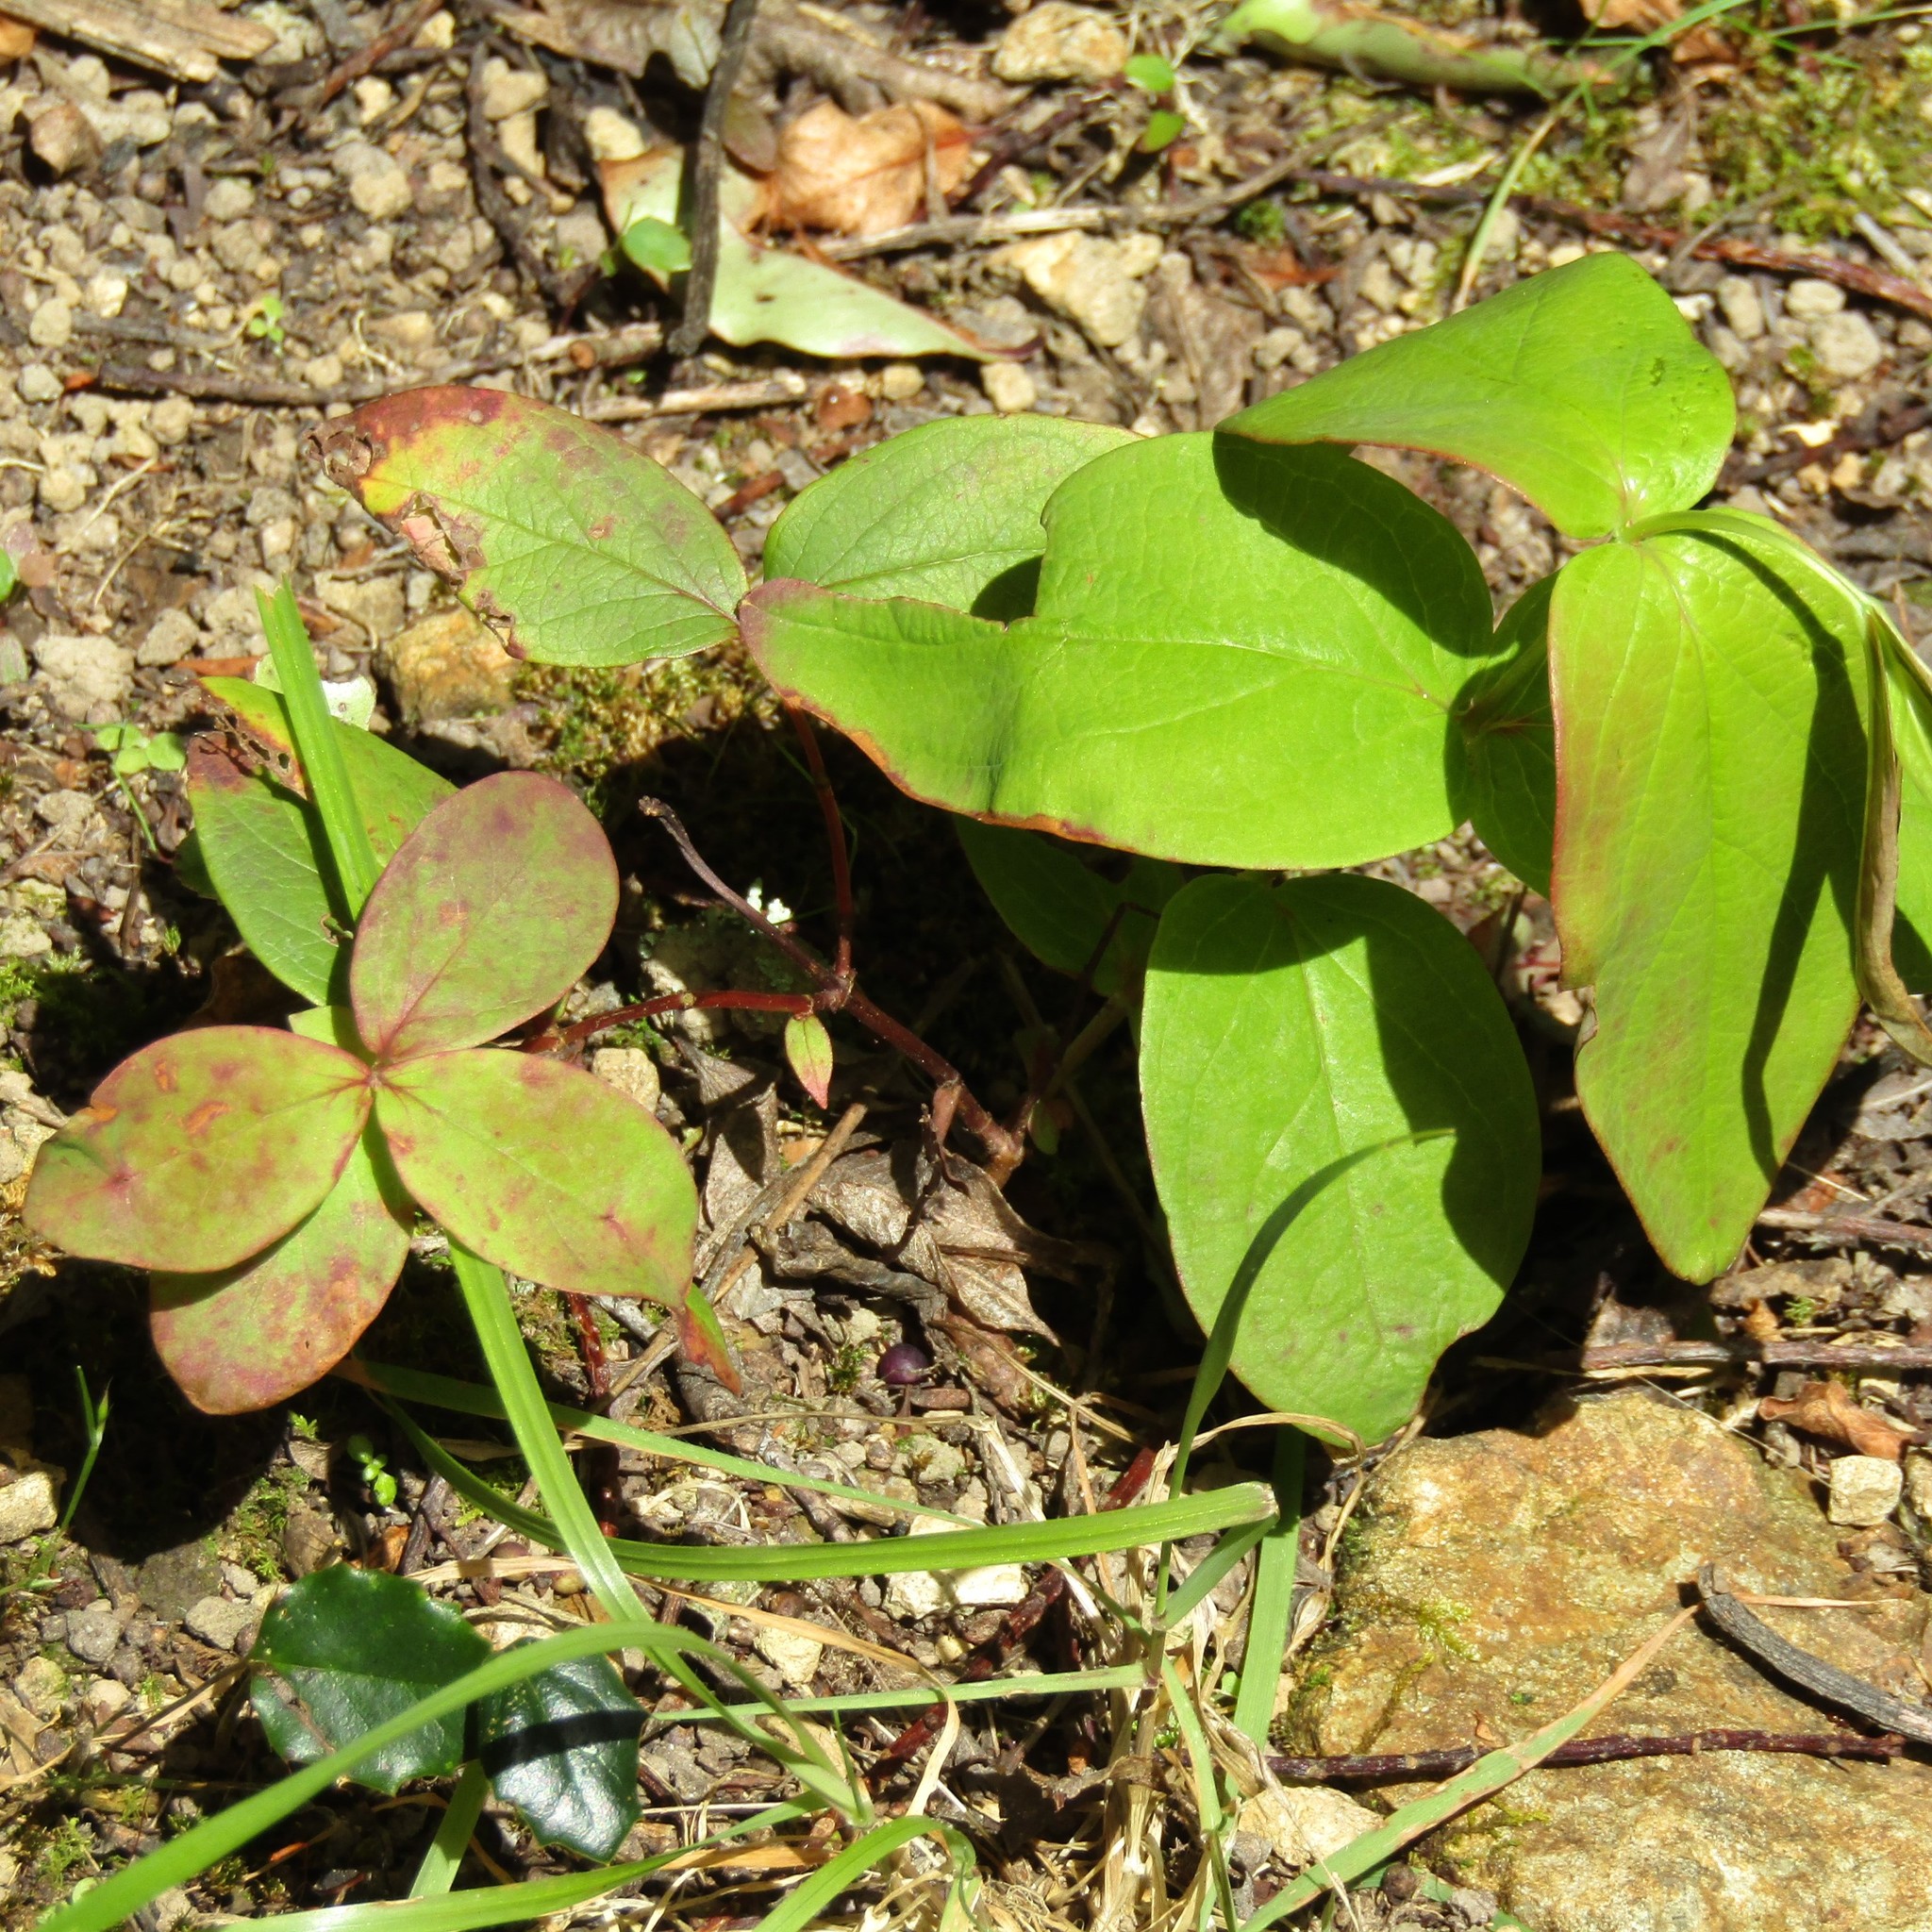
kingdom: Plantae
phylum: Tracheophyta
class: Magnoliopsida
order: Malpighiales
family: Hypericaceae
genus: Hypericum
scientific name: Hypericum androsaemum
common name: Sweet-amber
